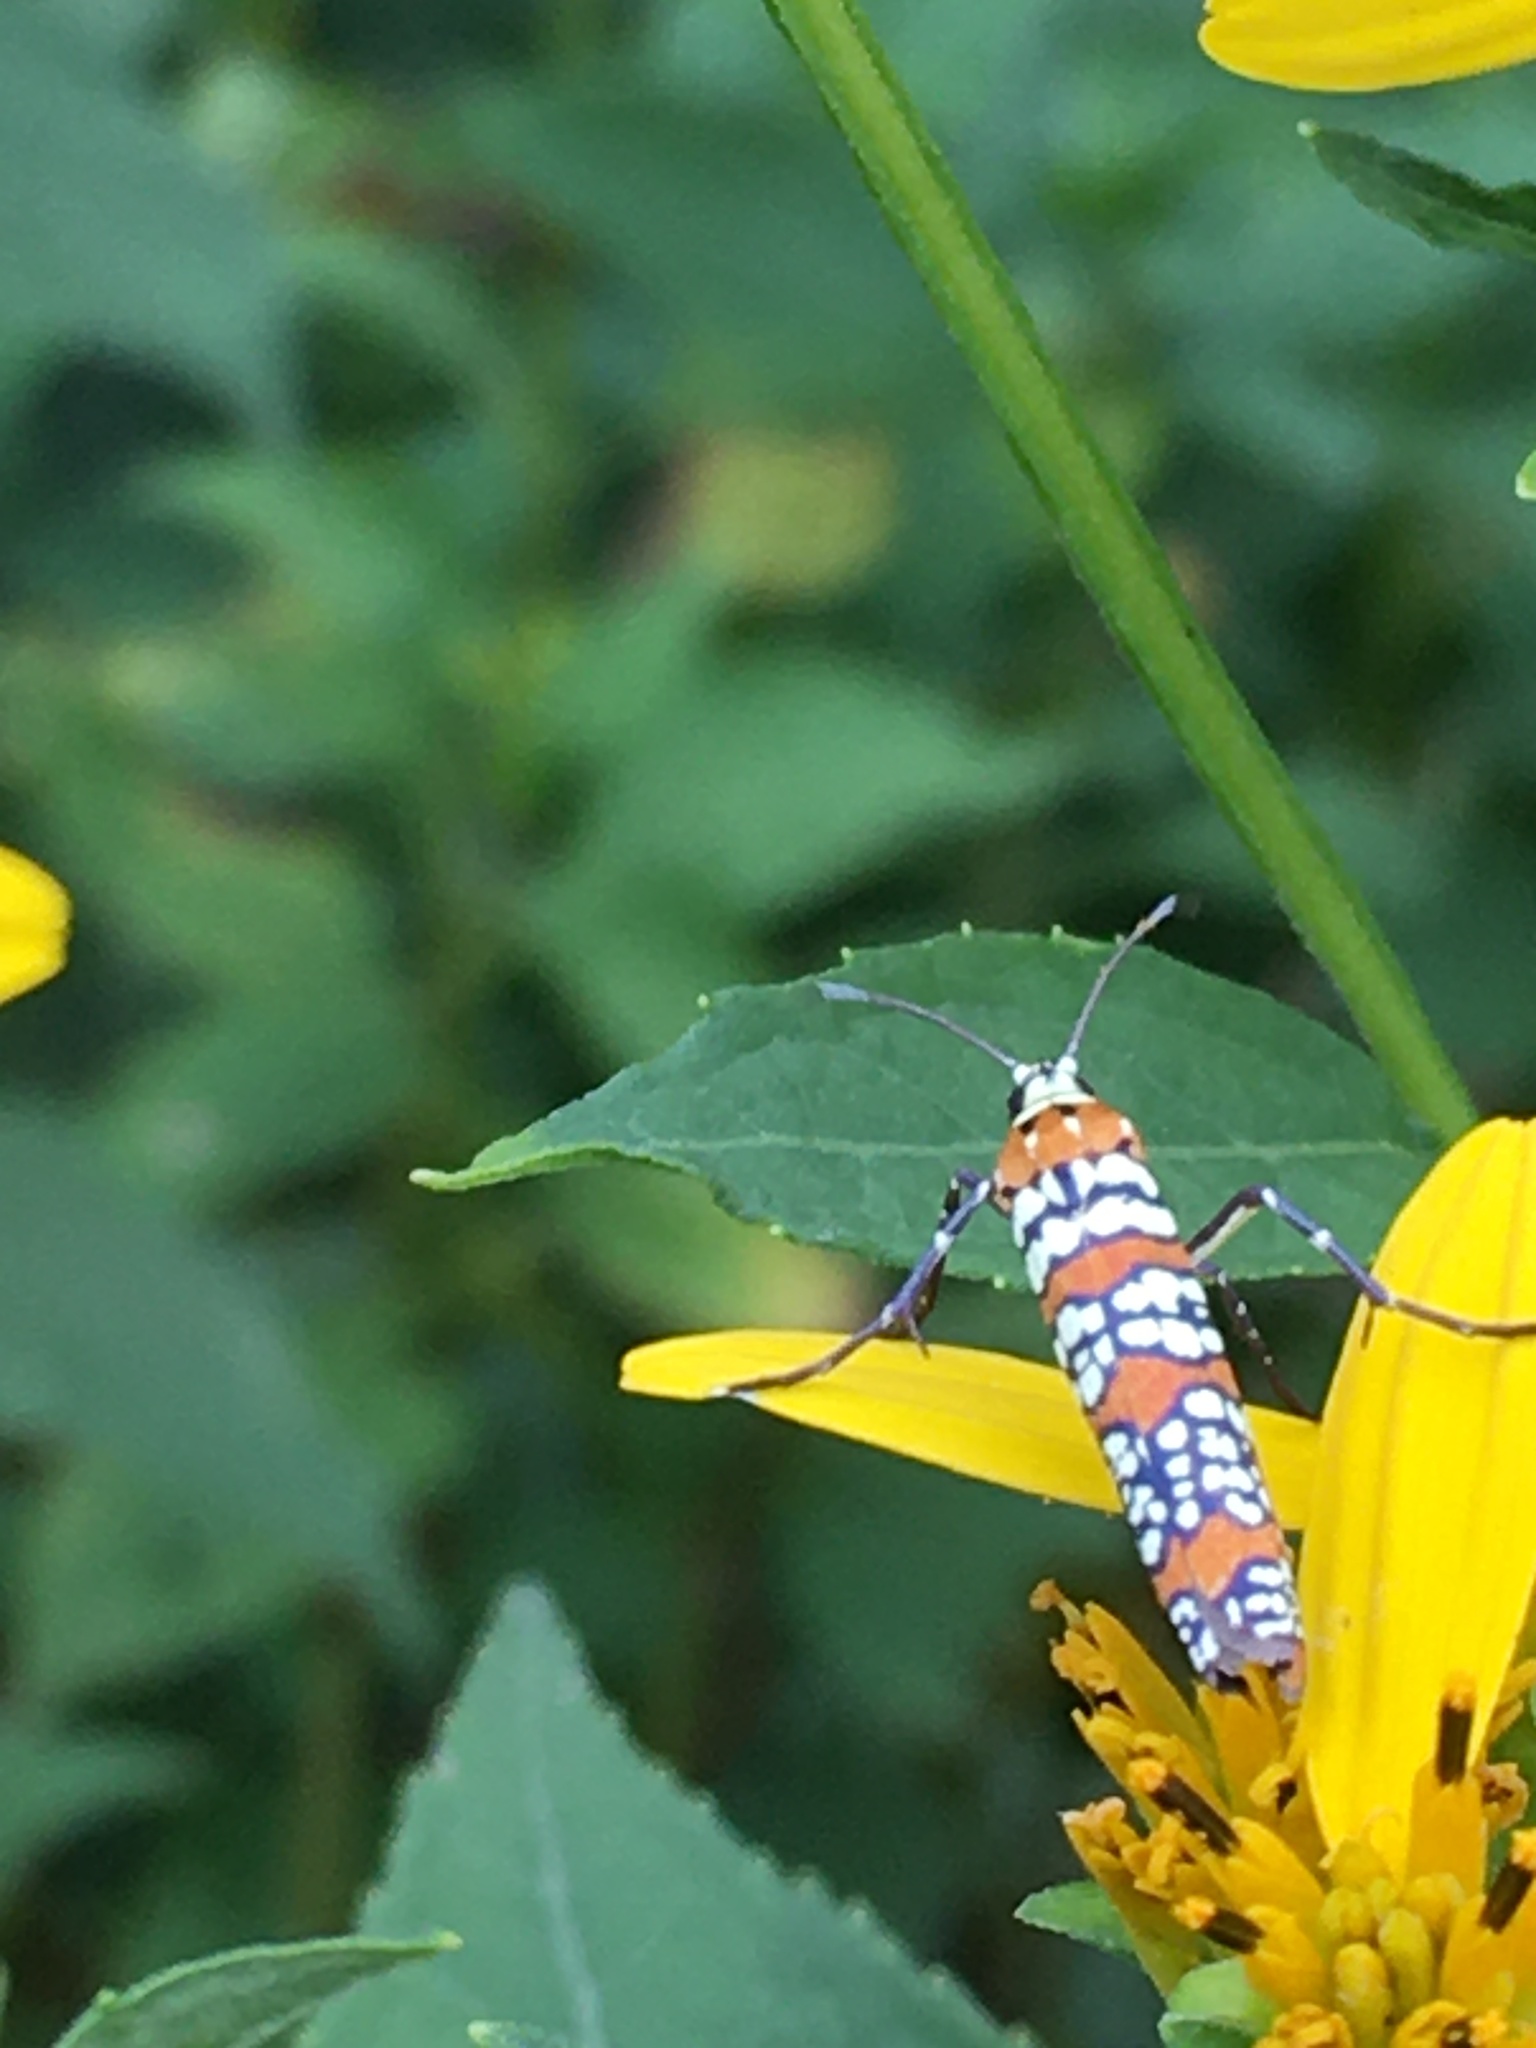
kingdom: Animalia
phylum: Arthropoda
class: Insecta
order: Lepidoptera
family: Attevidae
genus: Atteva
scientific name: Atteva punctella
